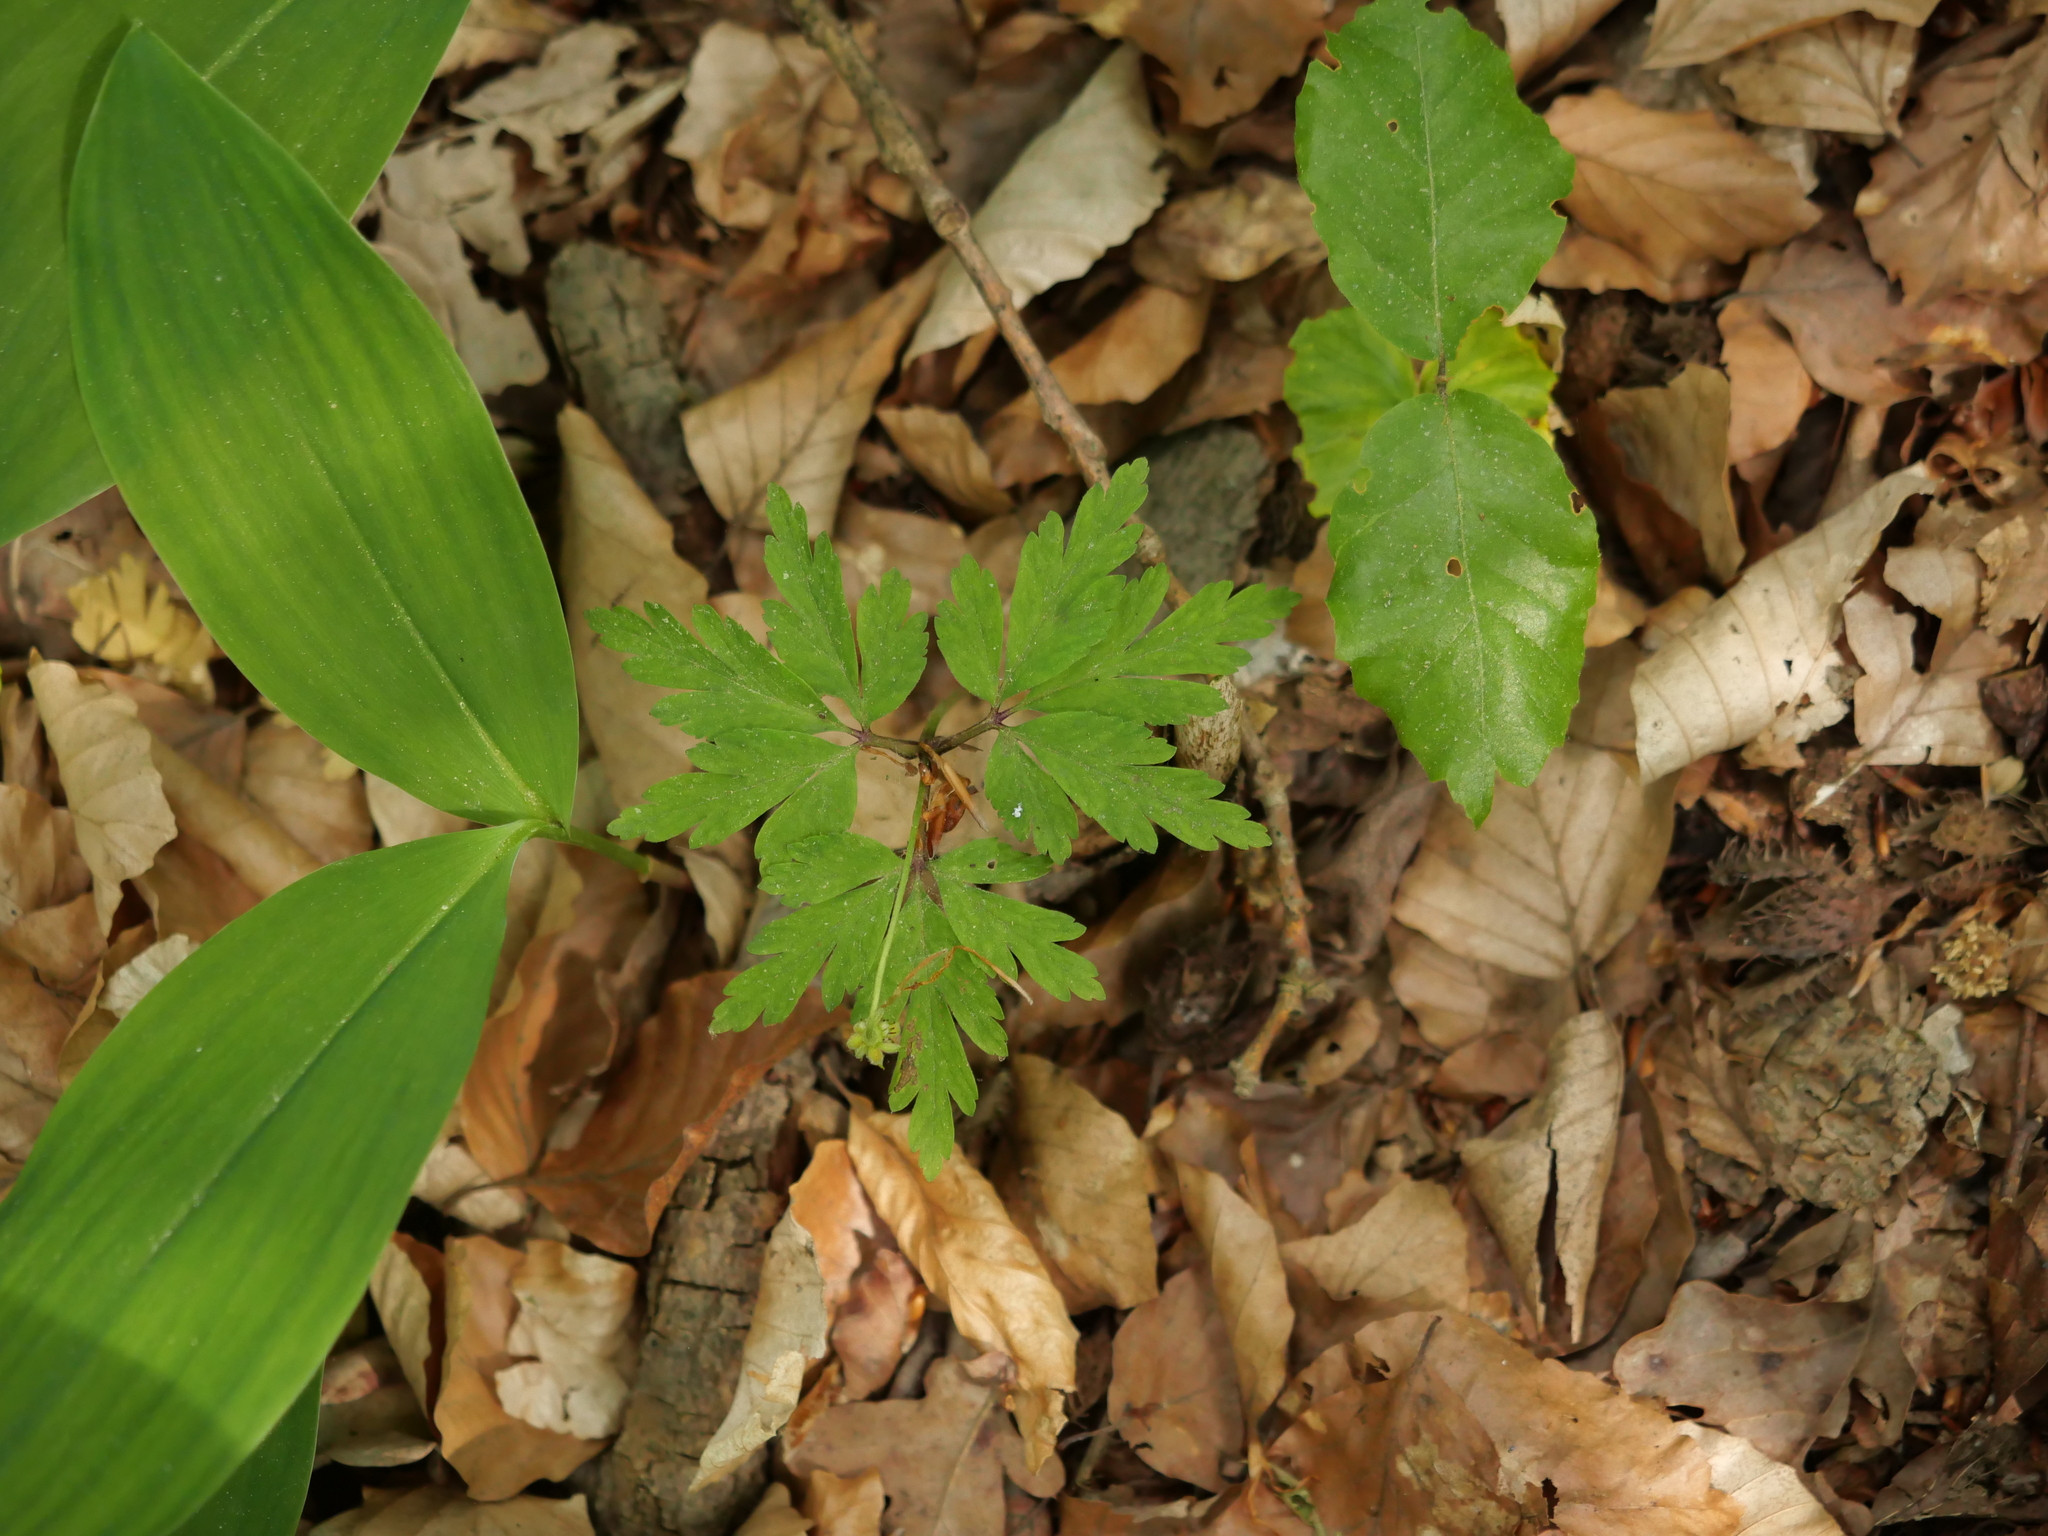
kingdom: Plantae
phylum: Tracheophyta
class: Magnoliopsida
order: Ranunculales
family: Ranunculaceae
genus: Anemone
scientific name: Anemone nemorosa
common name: Wood anemone
